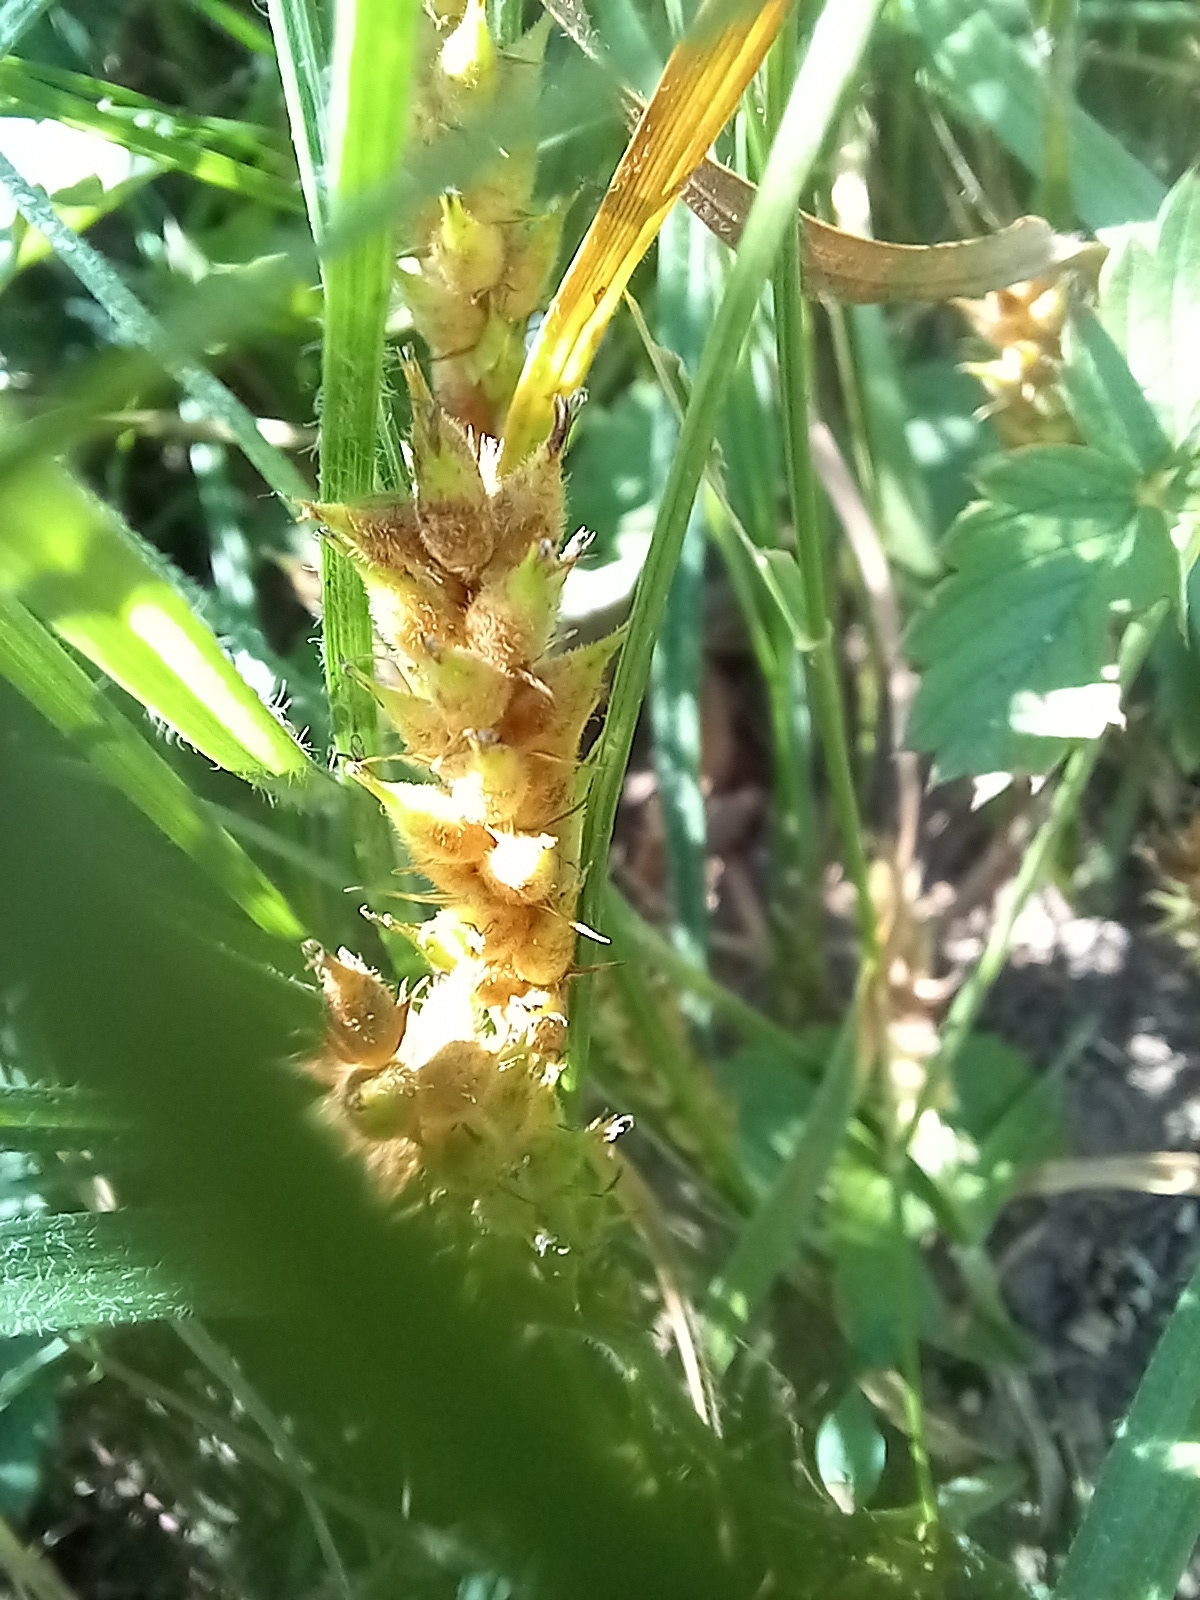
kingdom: Plantae
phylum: Tracheophyta
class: Liliopsida
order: Poales
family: Cyperaceae
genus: Carex
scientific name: Carex hirta
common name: Hairy sedge
